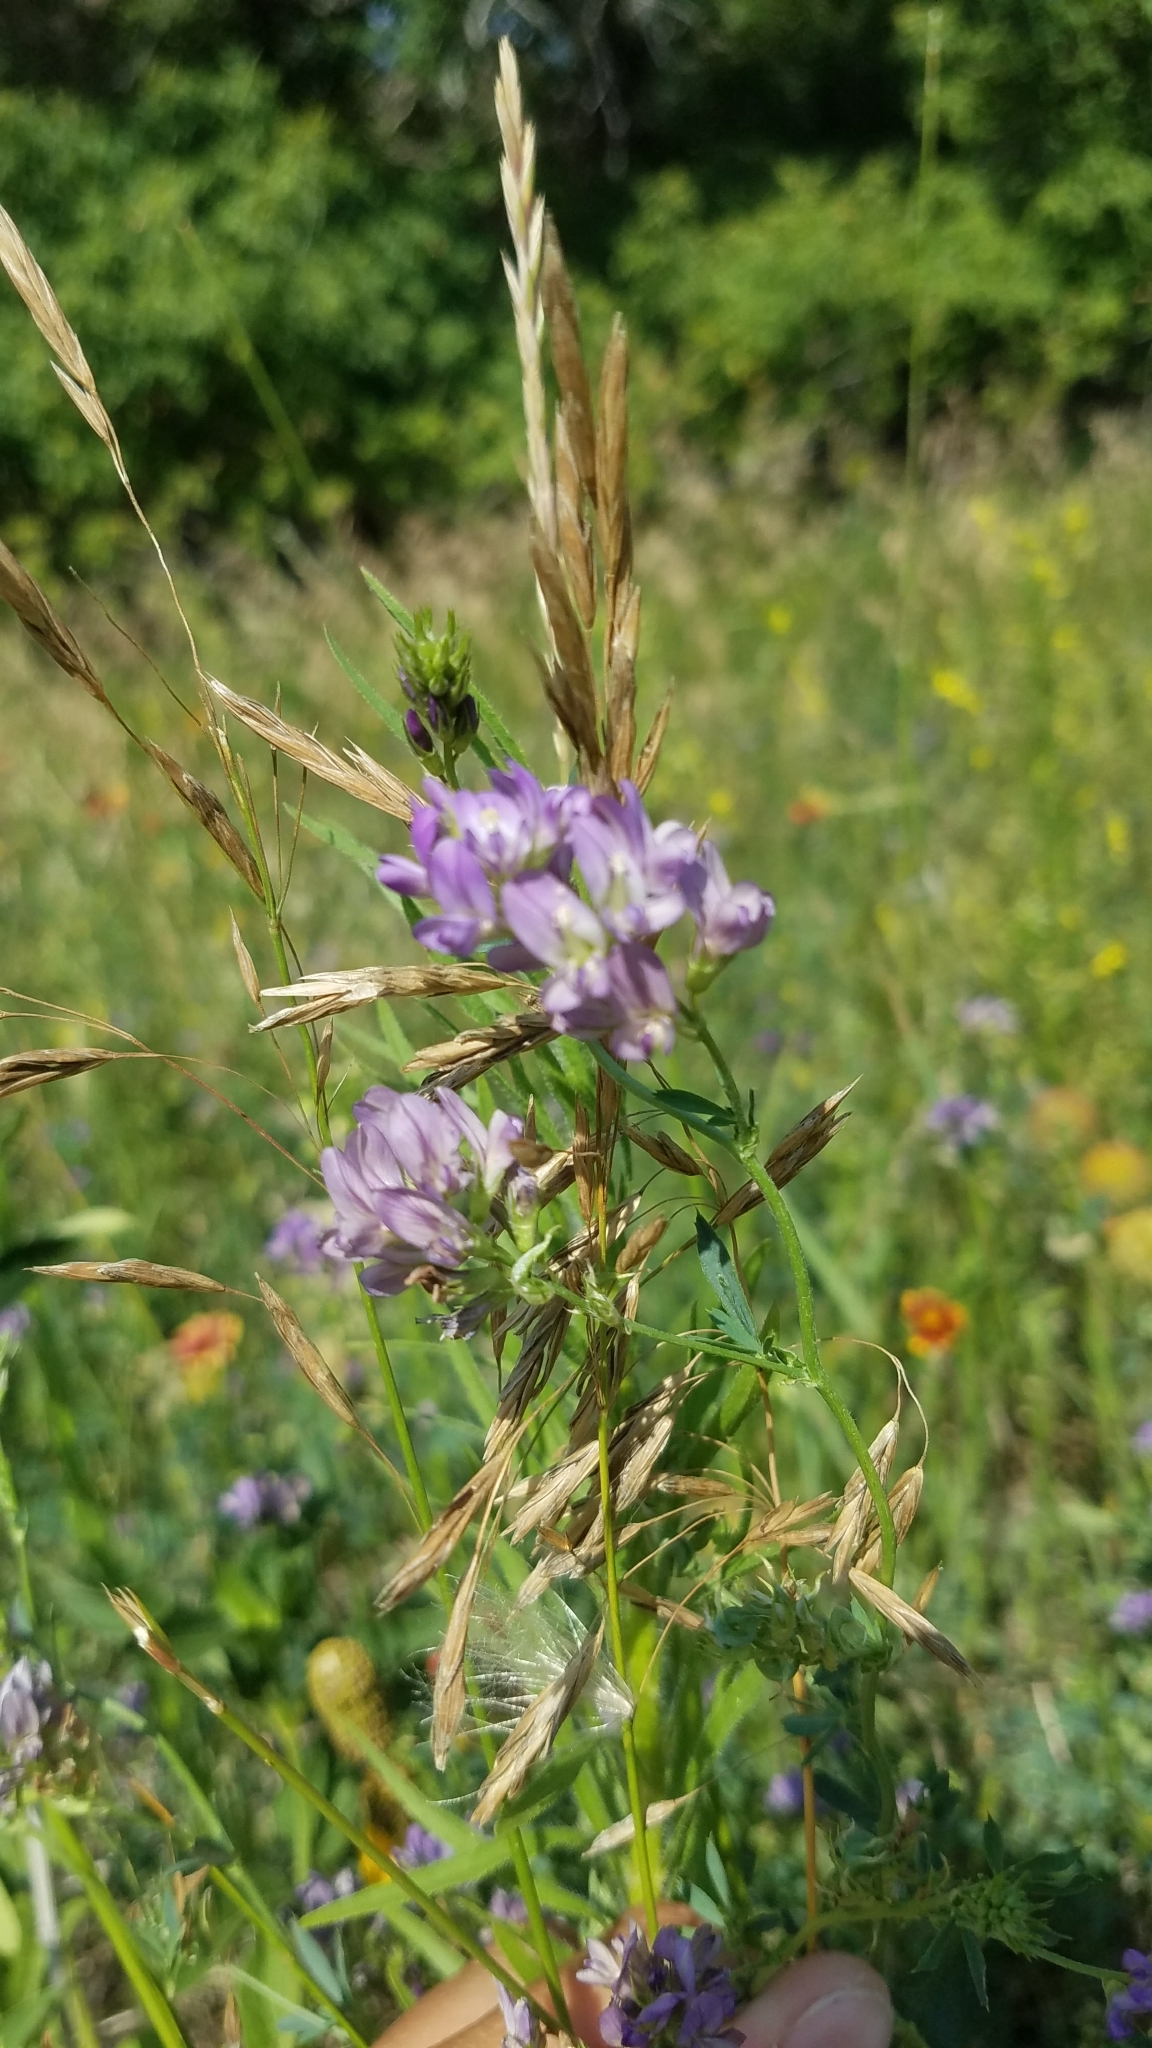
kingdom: Plantae
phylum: Tracheophyta
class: Magnoliopsida
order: Fabales
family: Fabaceae
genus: Medicago
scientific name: Medicago sativa
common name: Alfalfa
